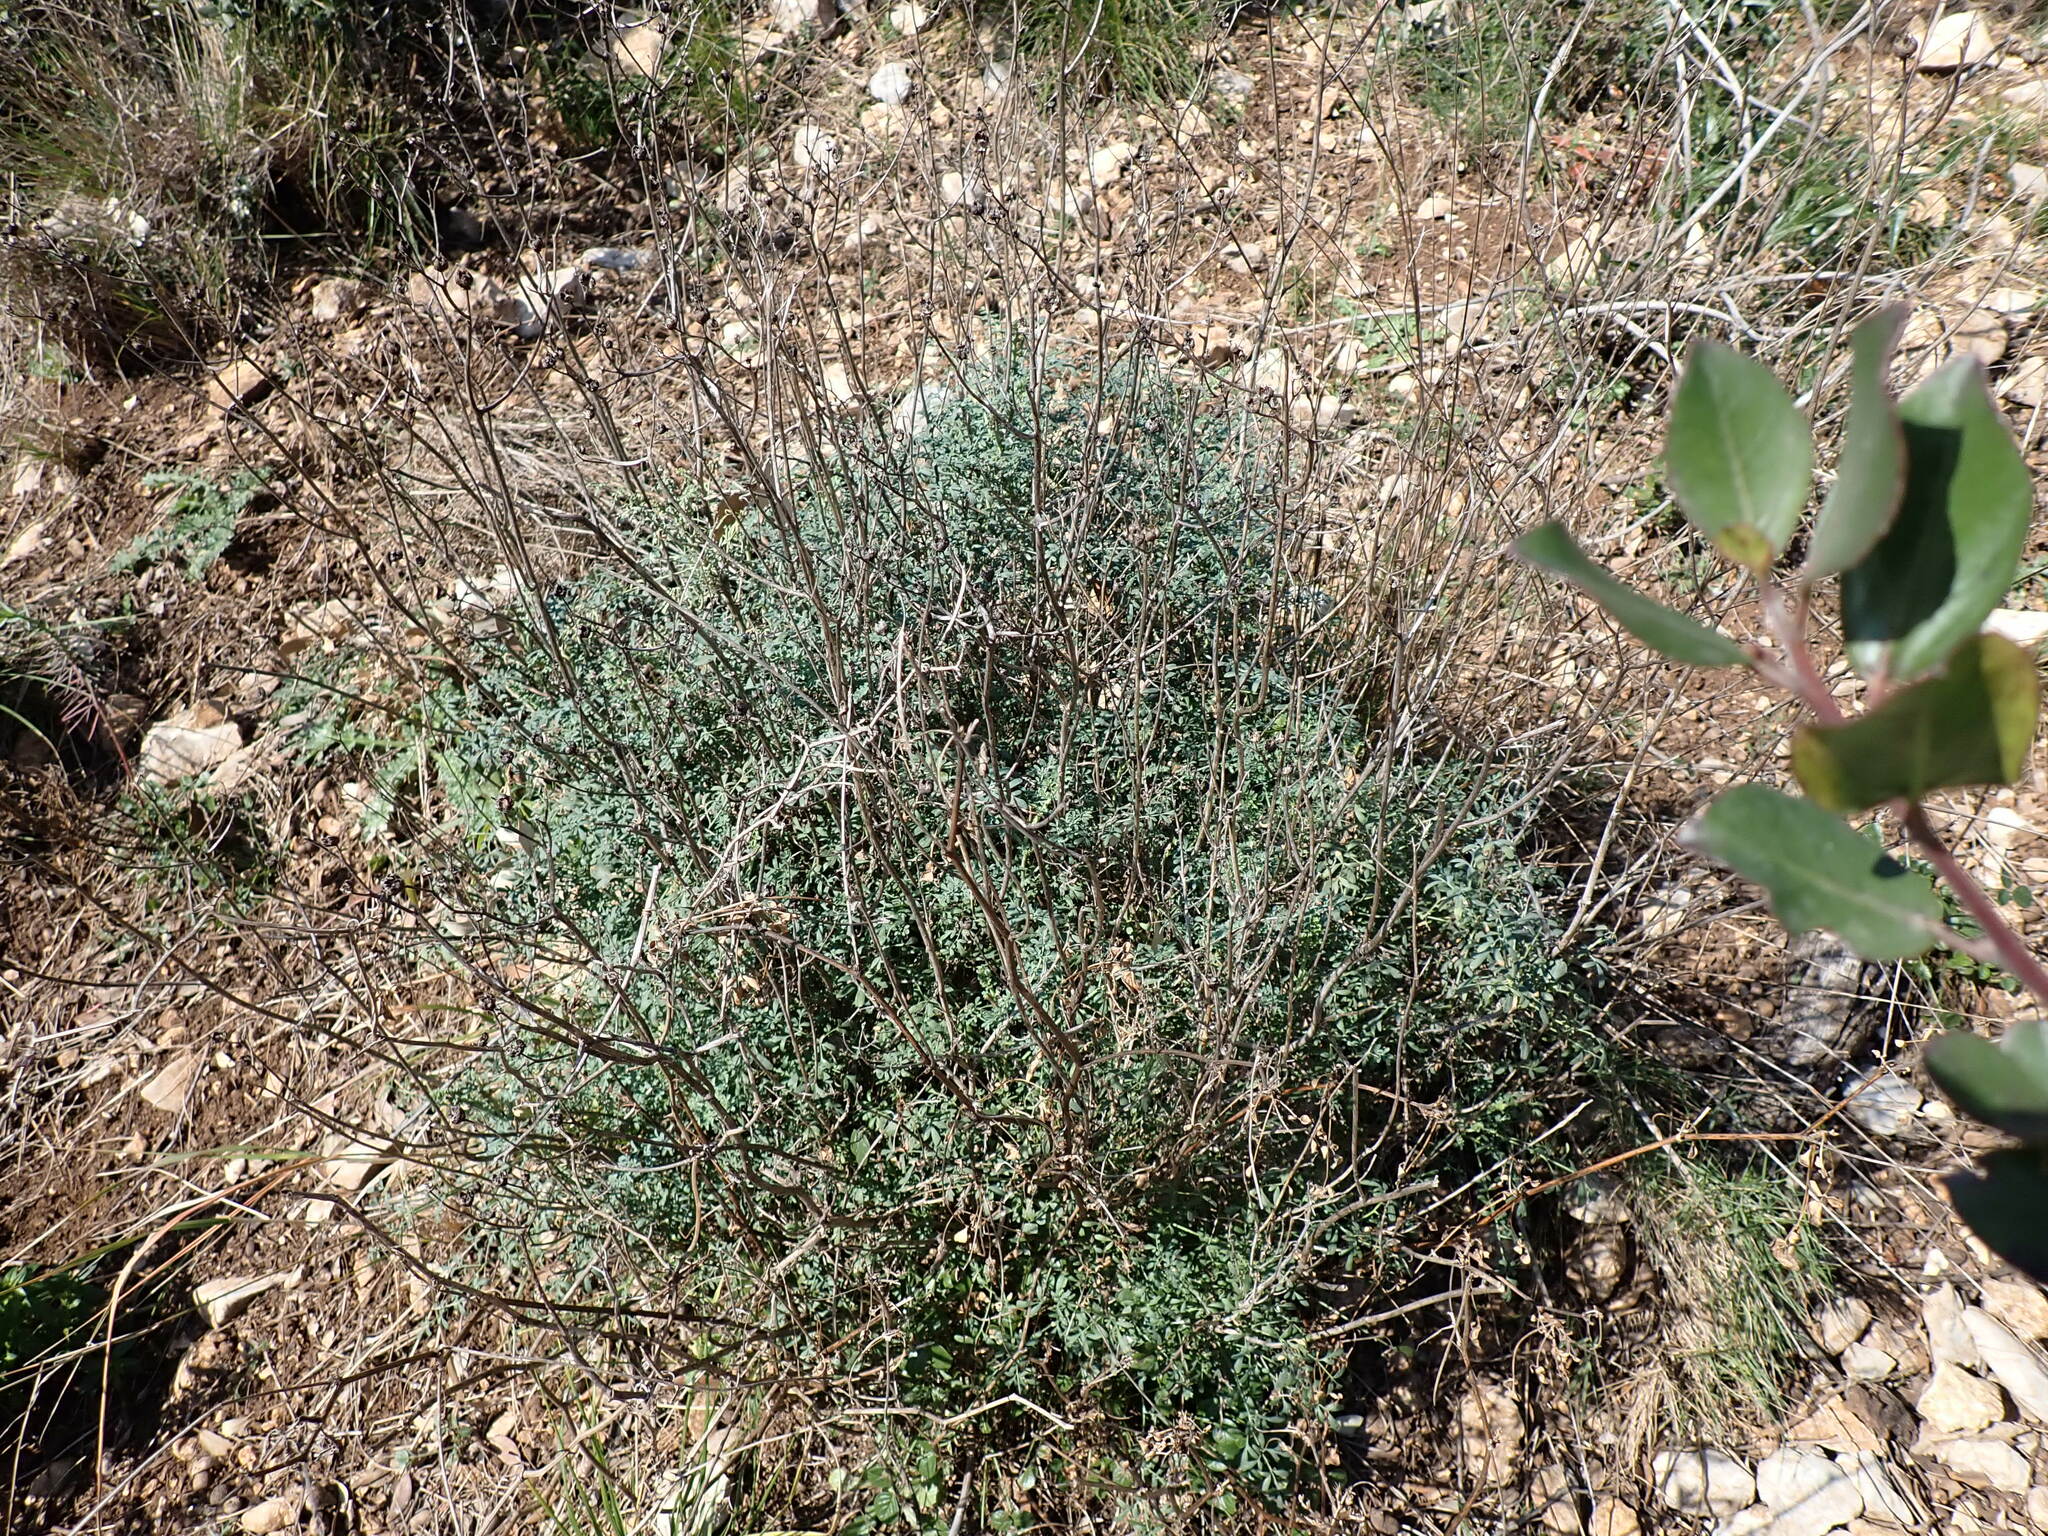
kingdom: Plantae
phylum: Tracheophyta
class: Magnoliopsida
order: Sapindales
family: Rutaceae
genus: Ruta
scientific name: Ruta angustifolia
